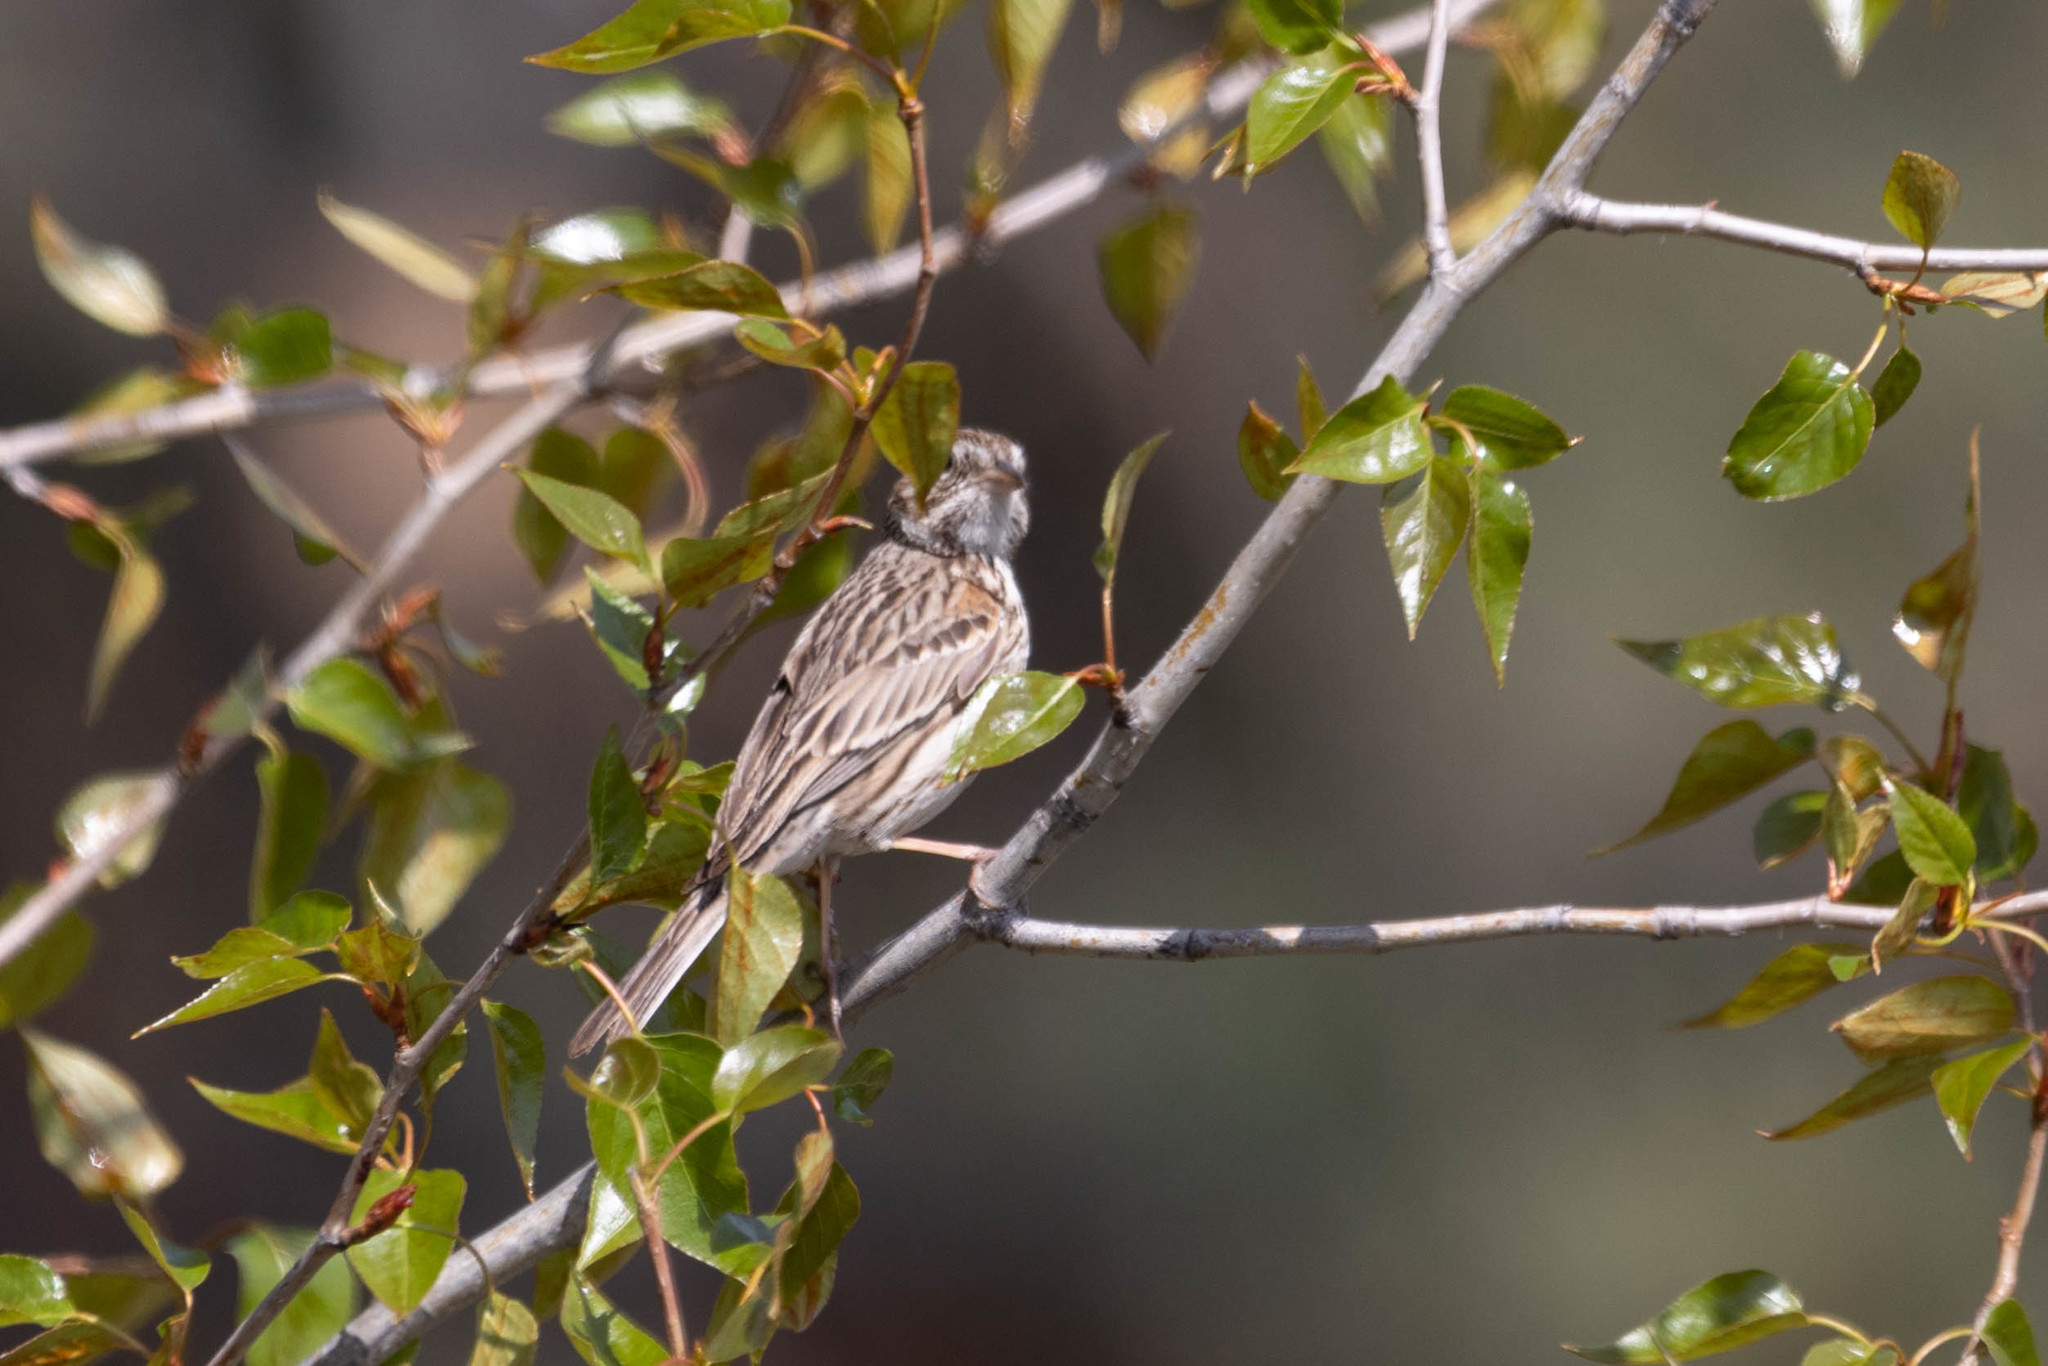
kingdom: Animalia
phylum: Chordata
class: Aves
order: Passeriformes
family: Passerellidae
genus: Pooecetes
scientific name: Pooecetes gramineus
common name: Vesper sparrow
